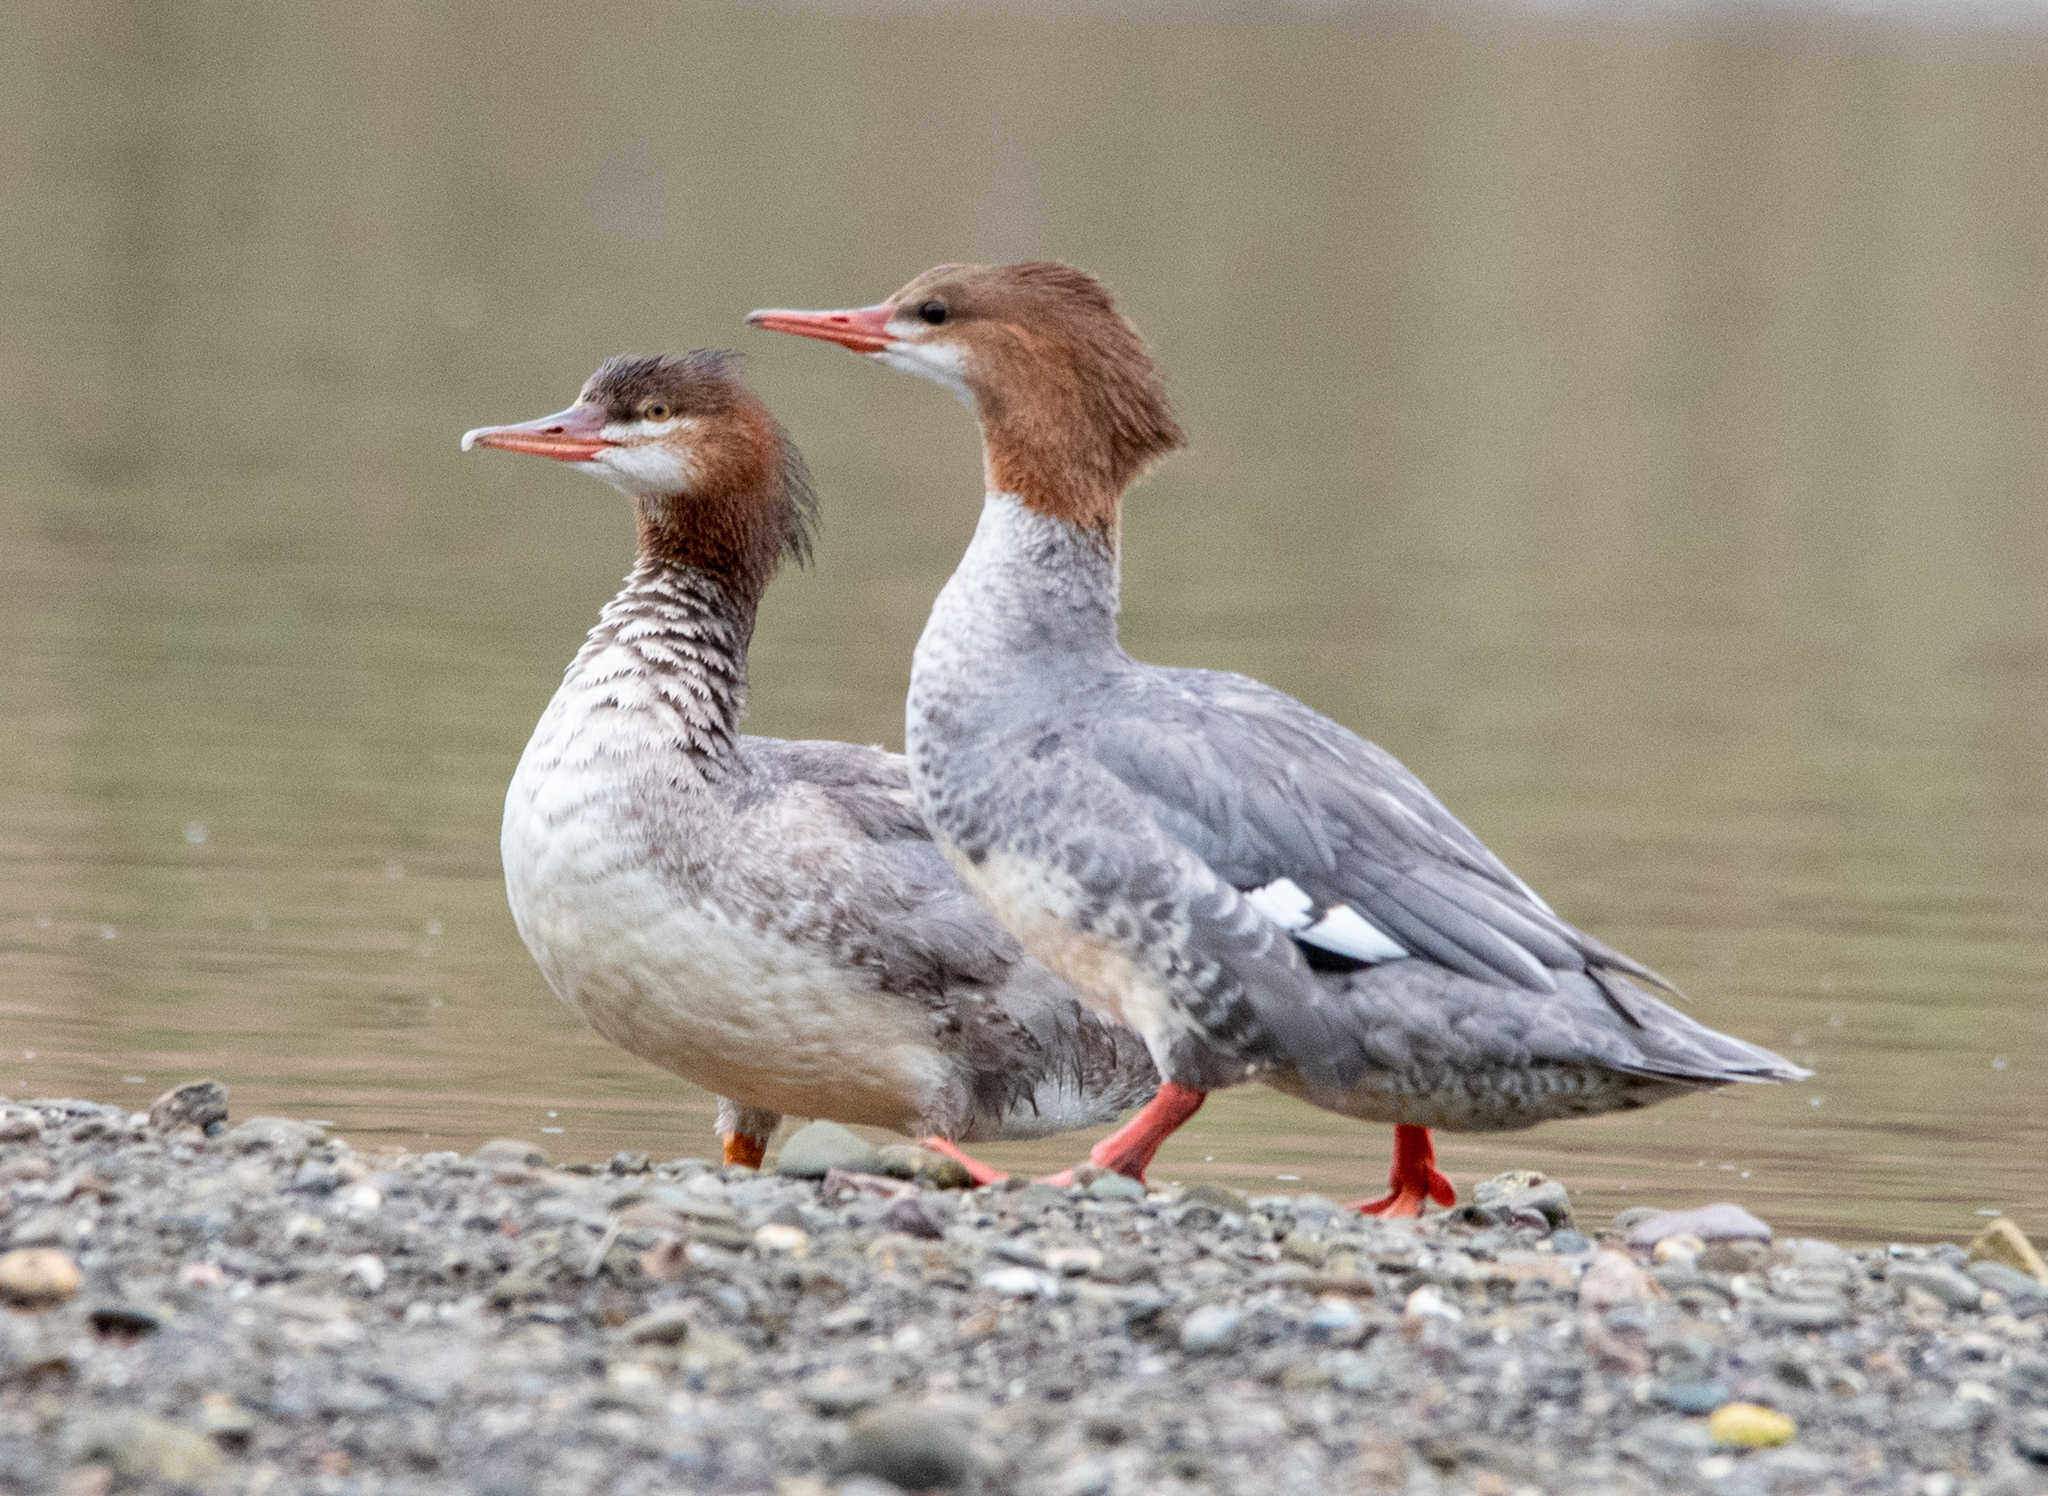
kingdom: Animalia
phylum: Chordata
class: Aves
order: Anseriformes
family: Anatidae
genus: Mergus
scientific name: Mergus merganser
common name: Common merganser
